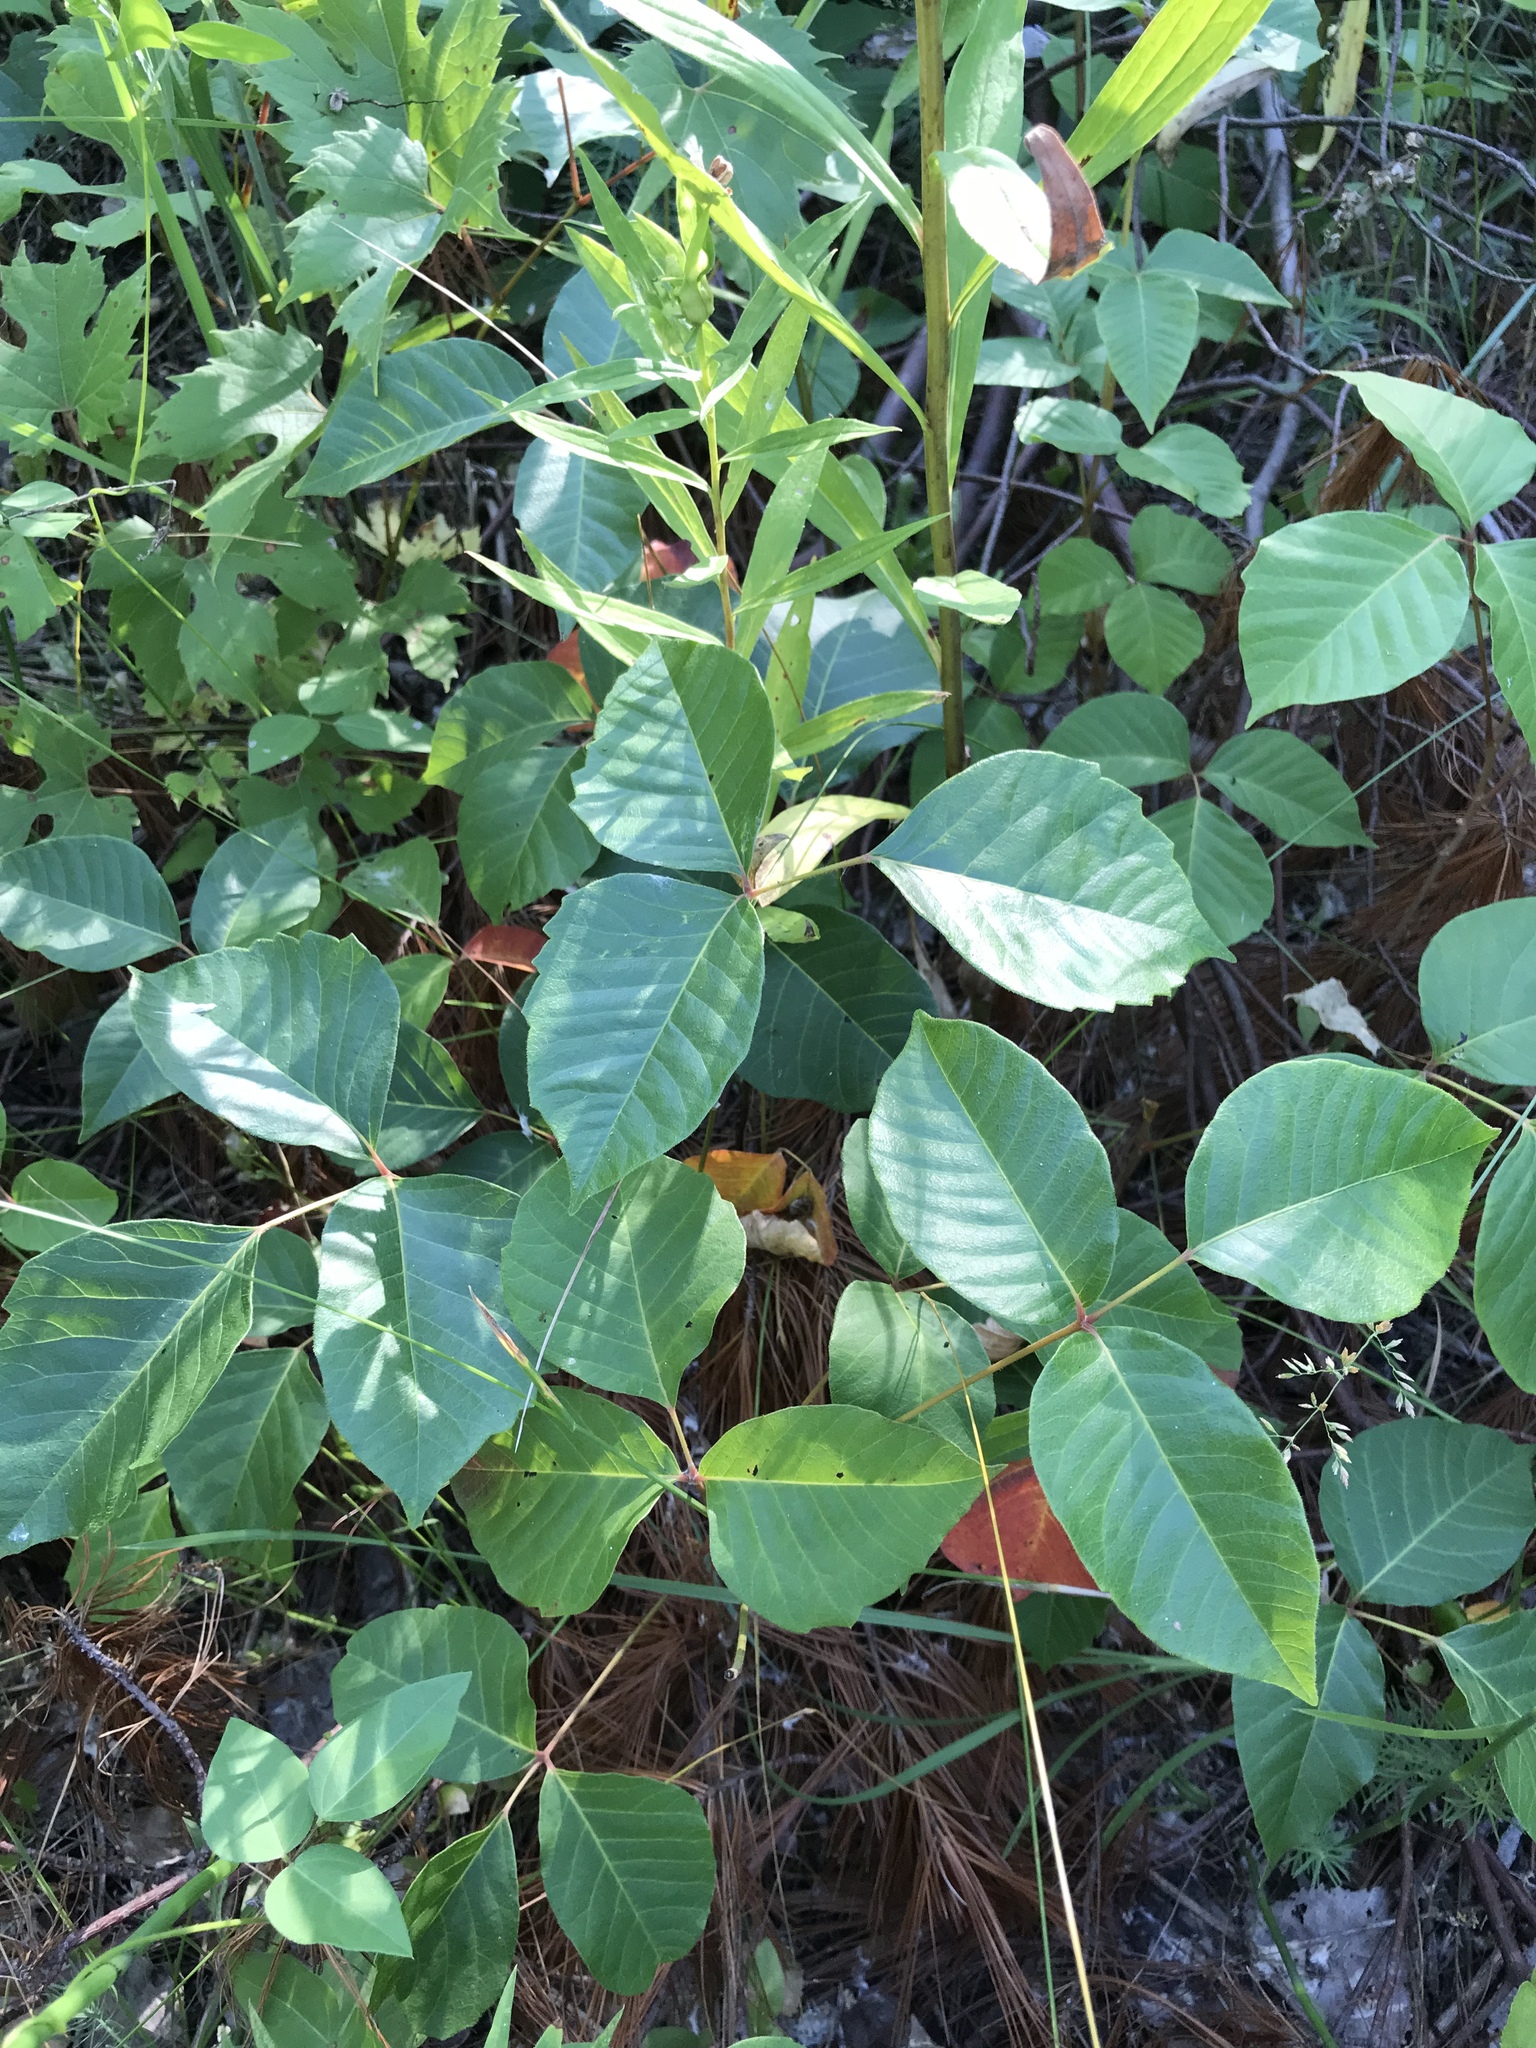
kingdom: Plantae
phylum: Tracheophyta
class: Magnoliopsida
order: Sapindales
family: Anacardiaceae
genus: Toxicodendron
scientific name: Toxicodendron radicans
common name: Poison ivy
